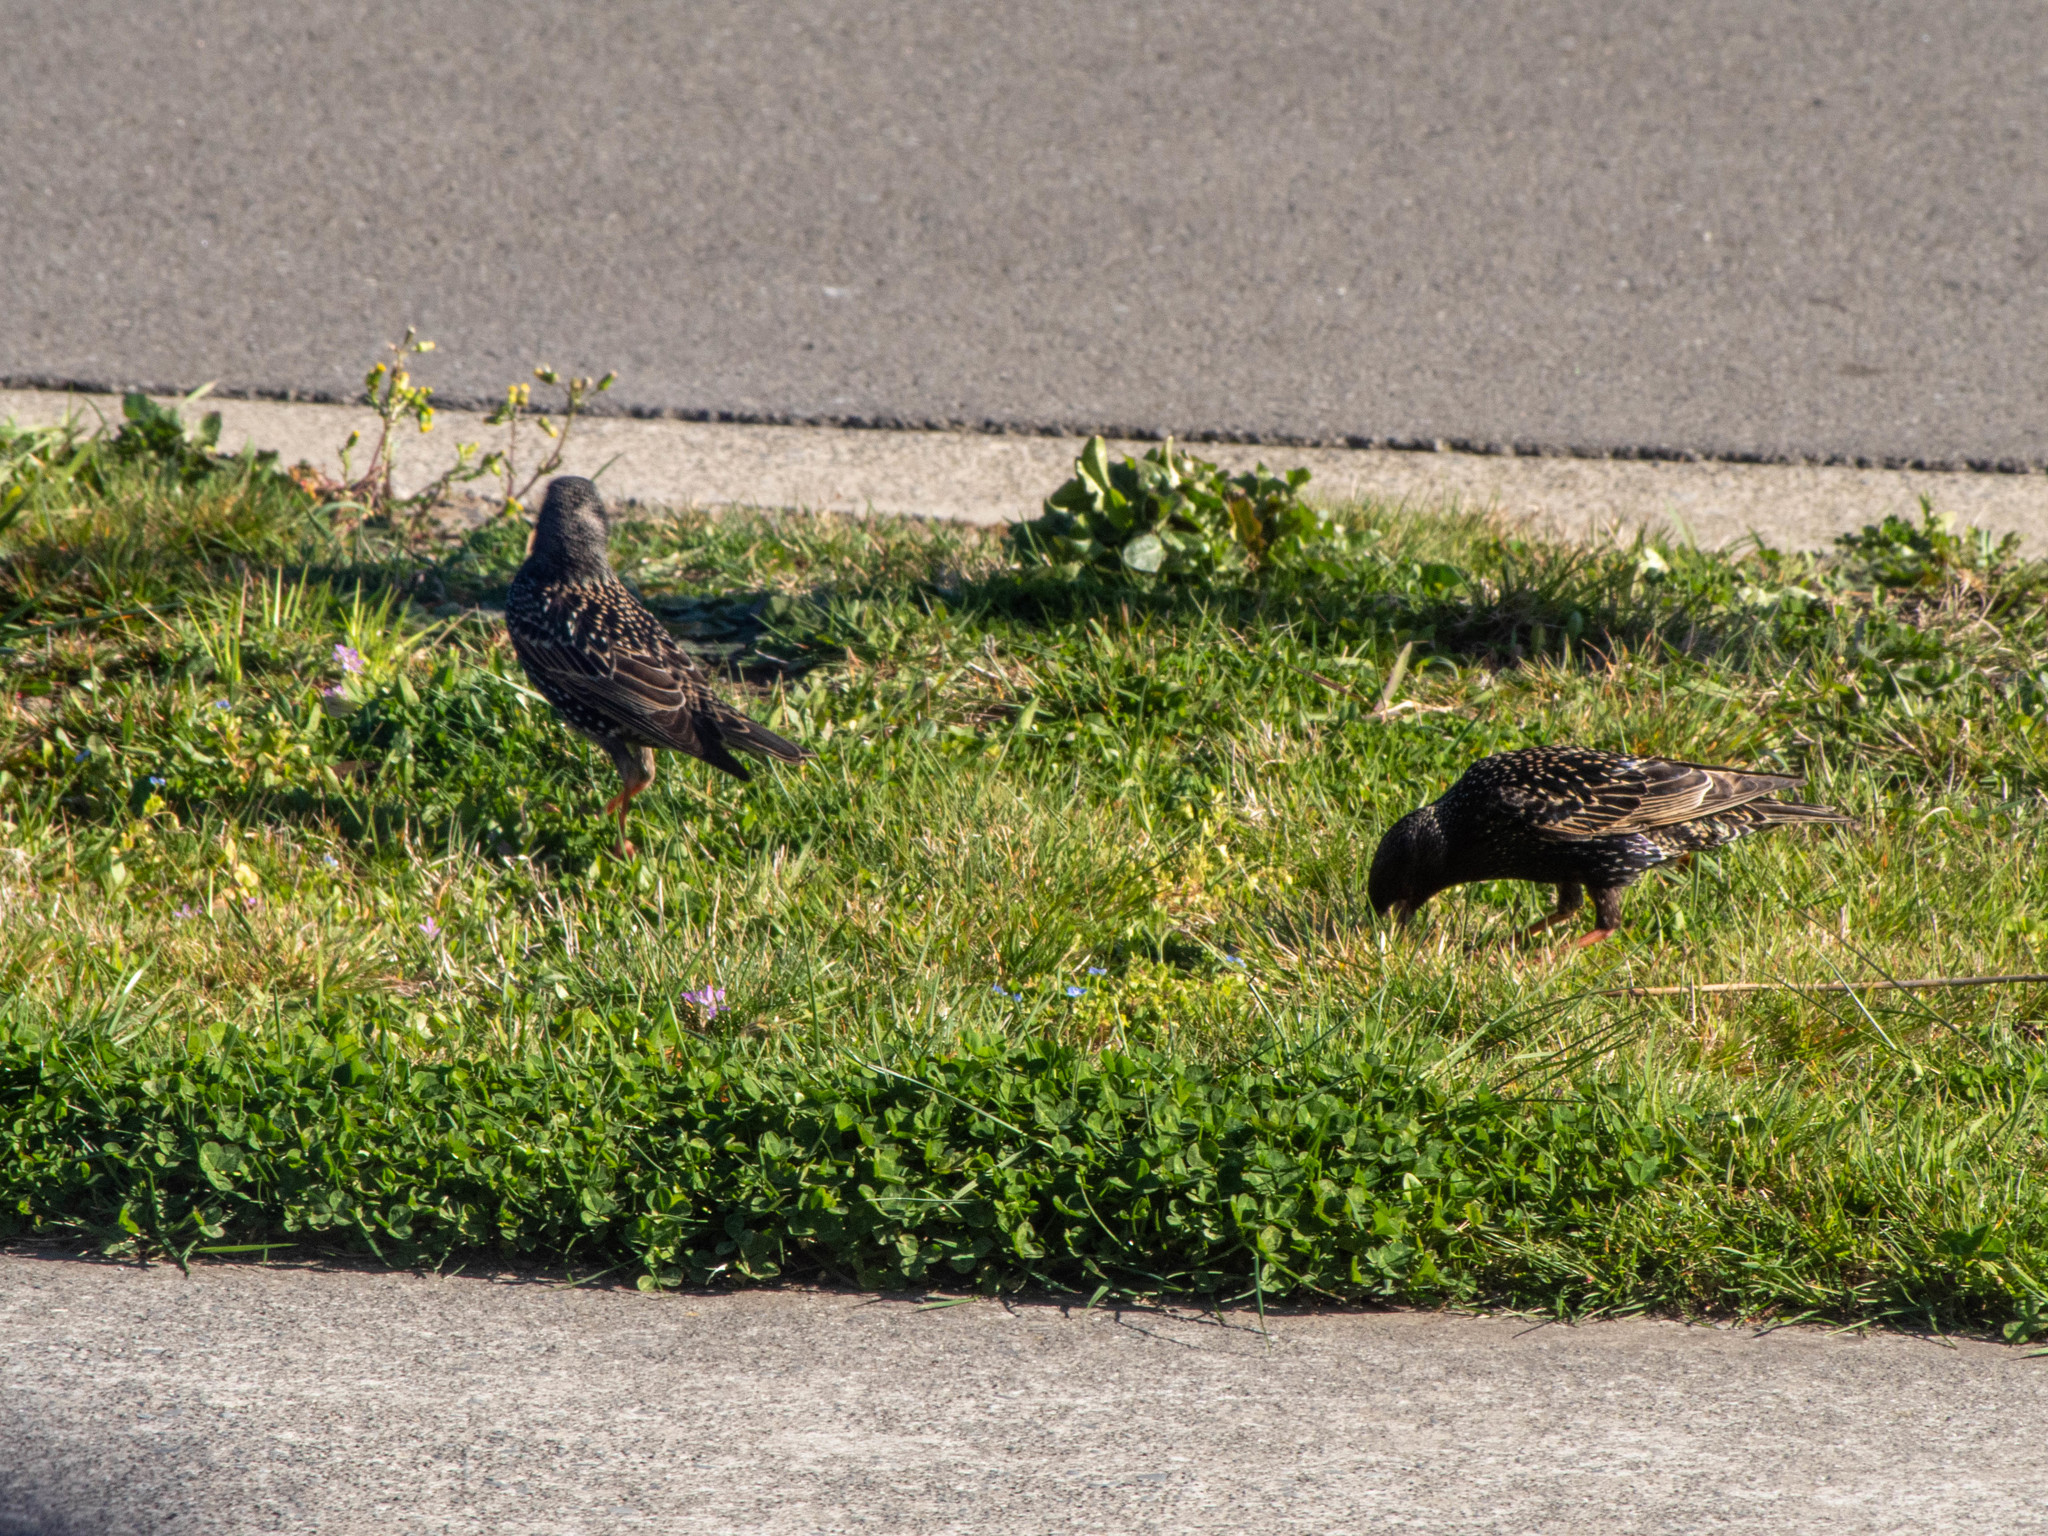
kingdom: Animalia
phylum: Chordata
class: Aves
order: Passeriformes
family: Sturnidae
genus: Sturnus
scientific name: Sturnus vulgaris
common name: Common starling
